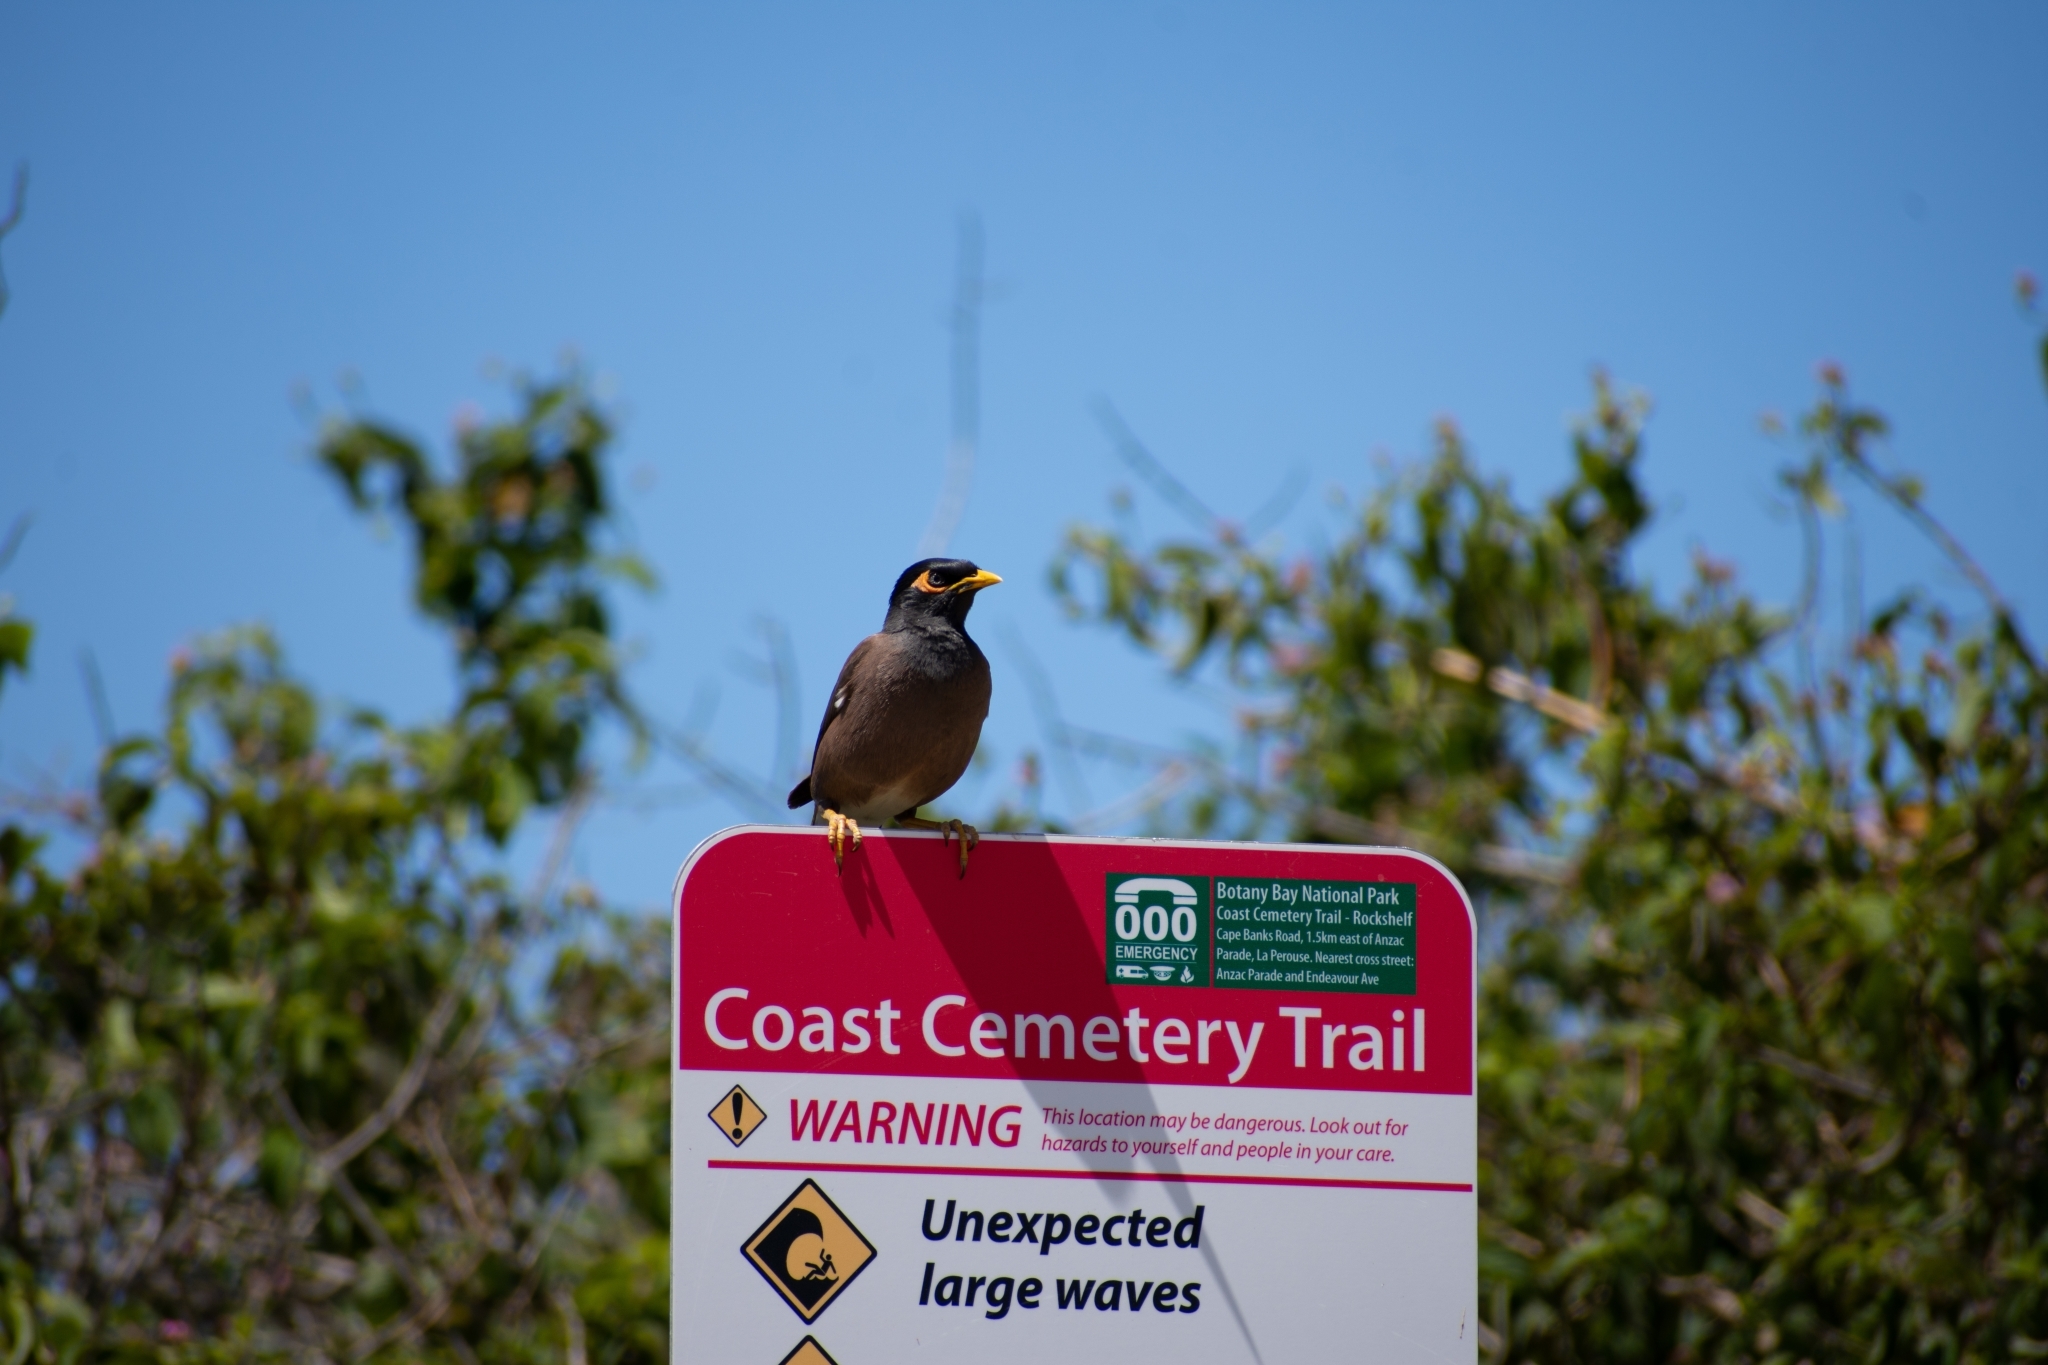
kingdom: Animalia
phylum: Chordata
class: Aves
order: Passeriformes
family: Sturnidae
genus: Acridotheres
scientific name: Acridotheres tristis
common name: Common myna
